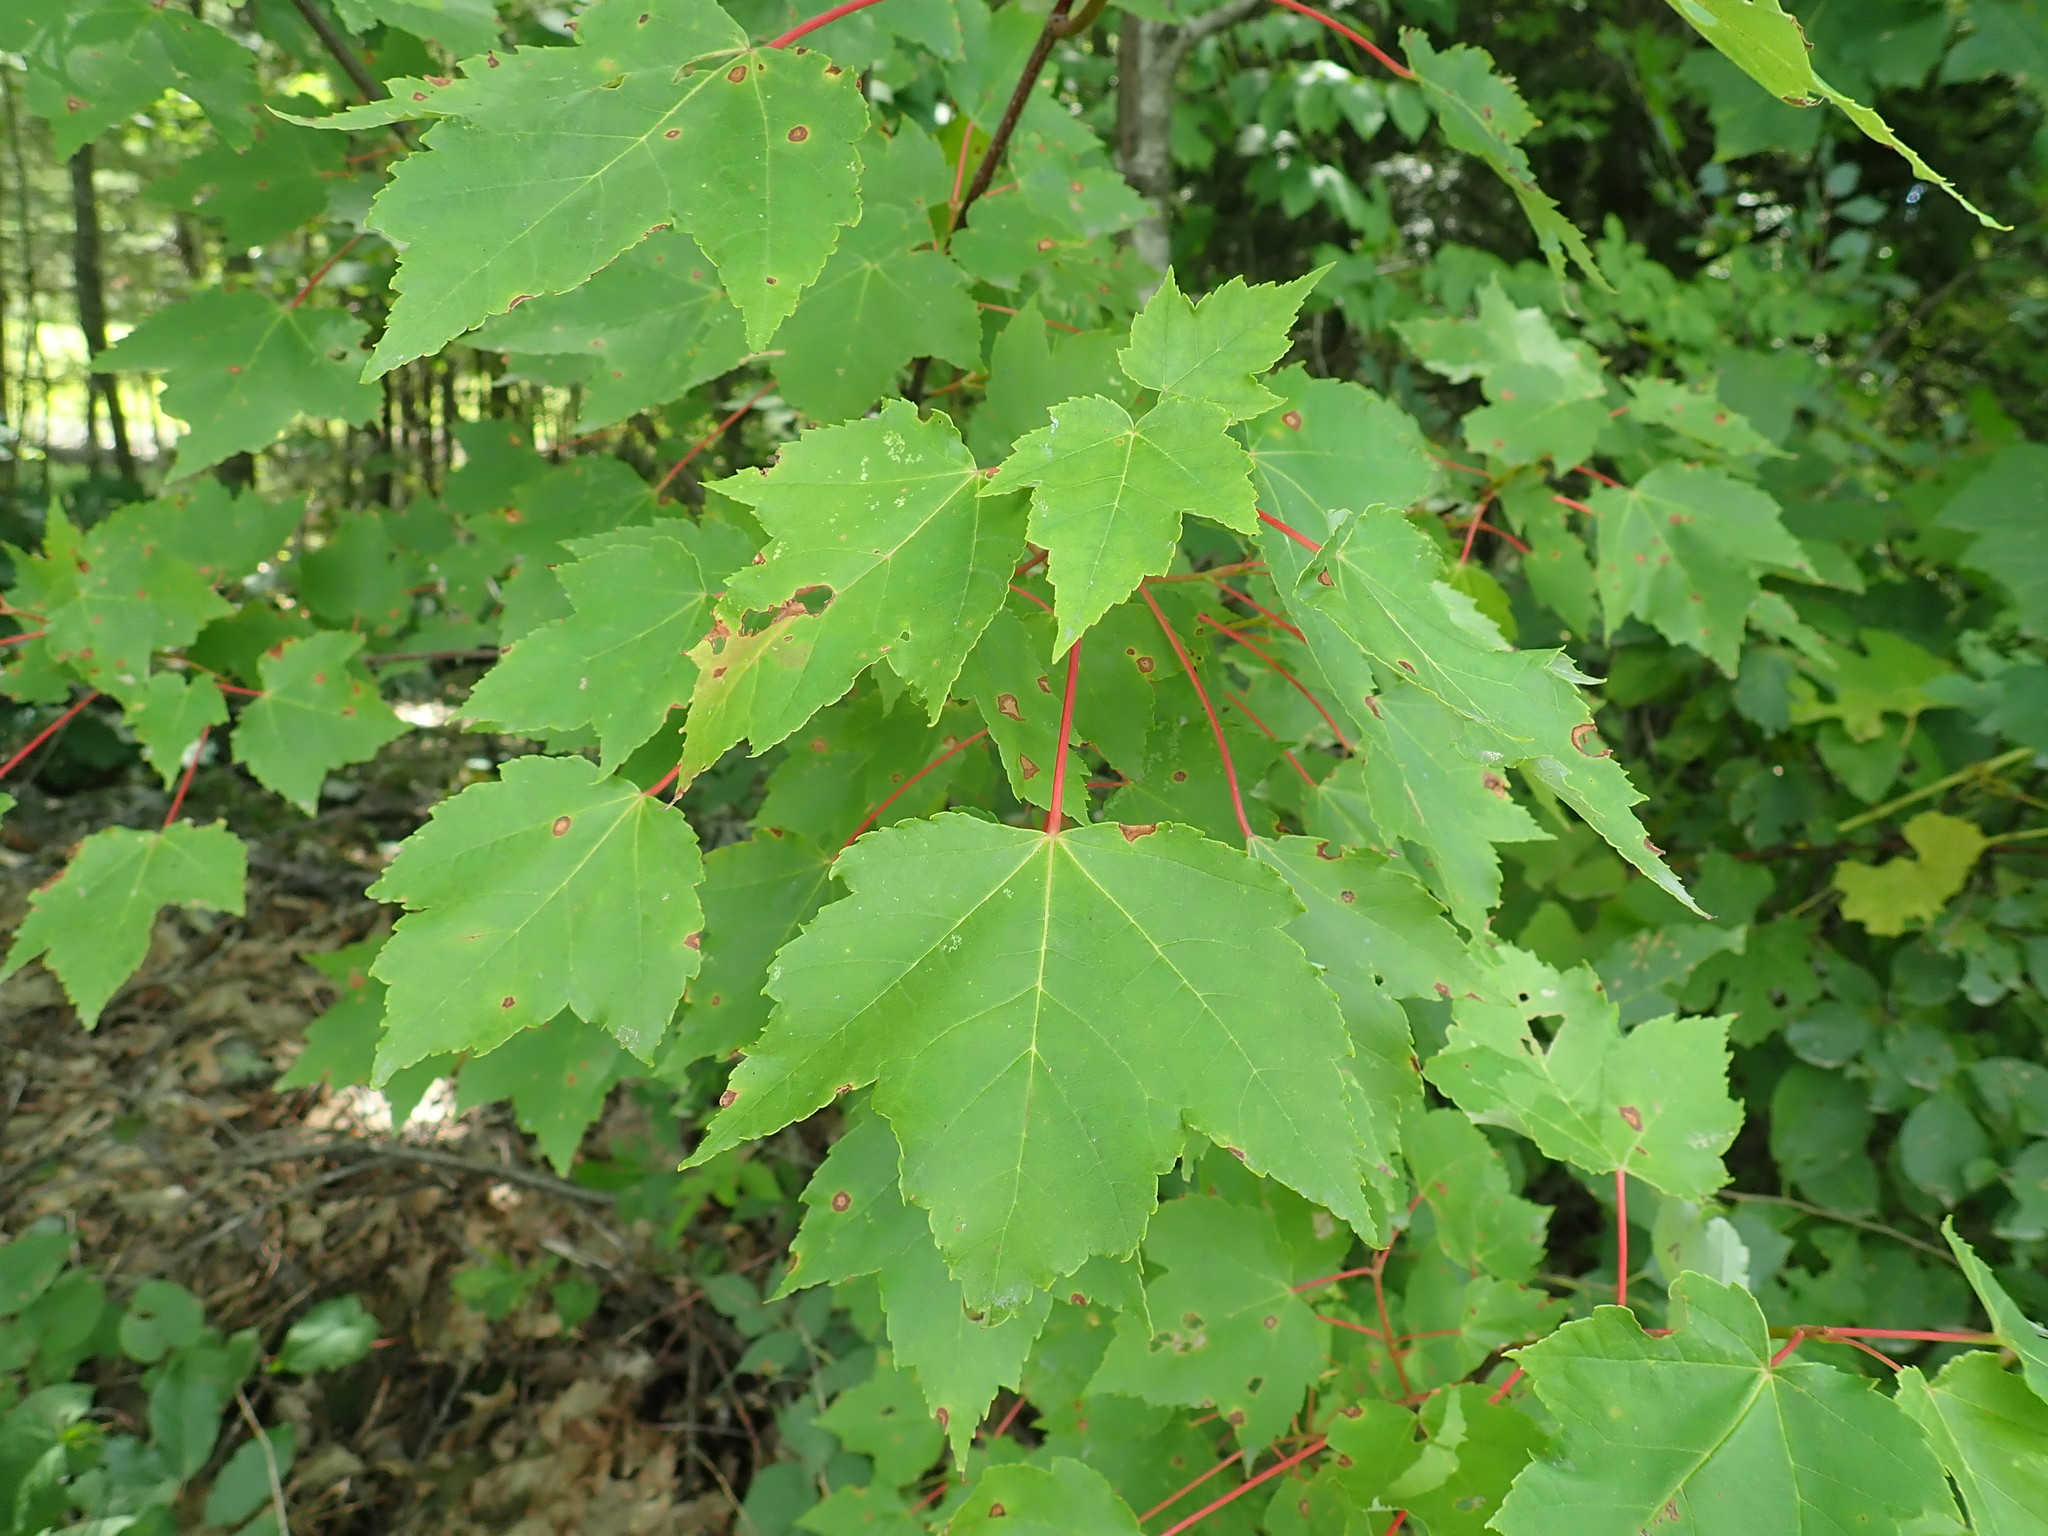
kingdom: Plantae
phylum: Tracheophyta
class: Magnoliopsida
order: Sapindales
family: Sapindaceae
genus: Acer
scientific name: Acer rubrum
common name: Red maple
